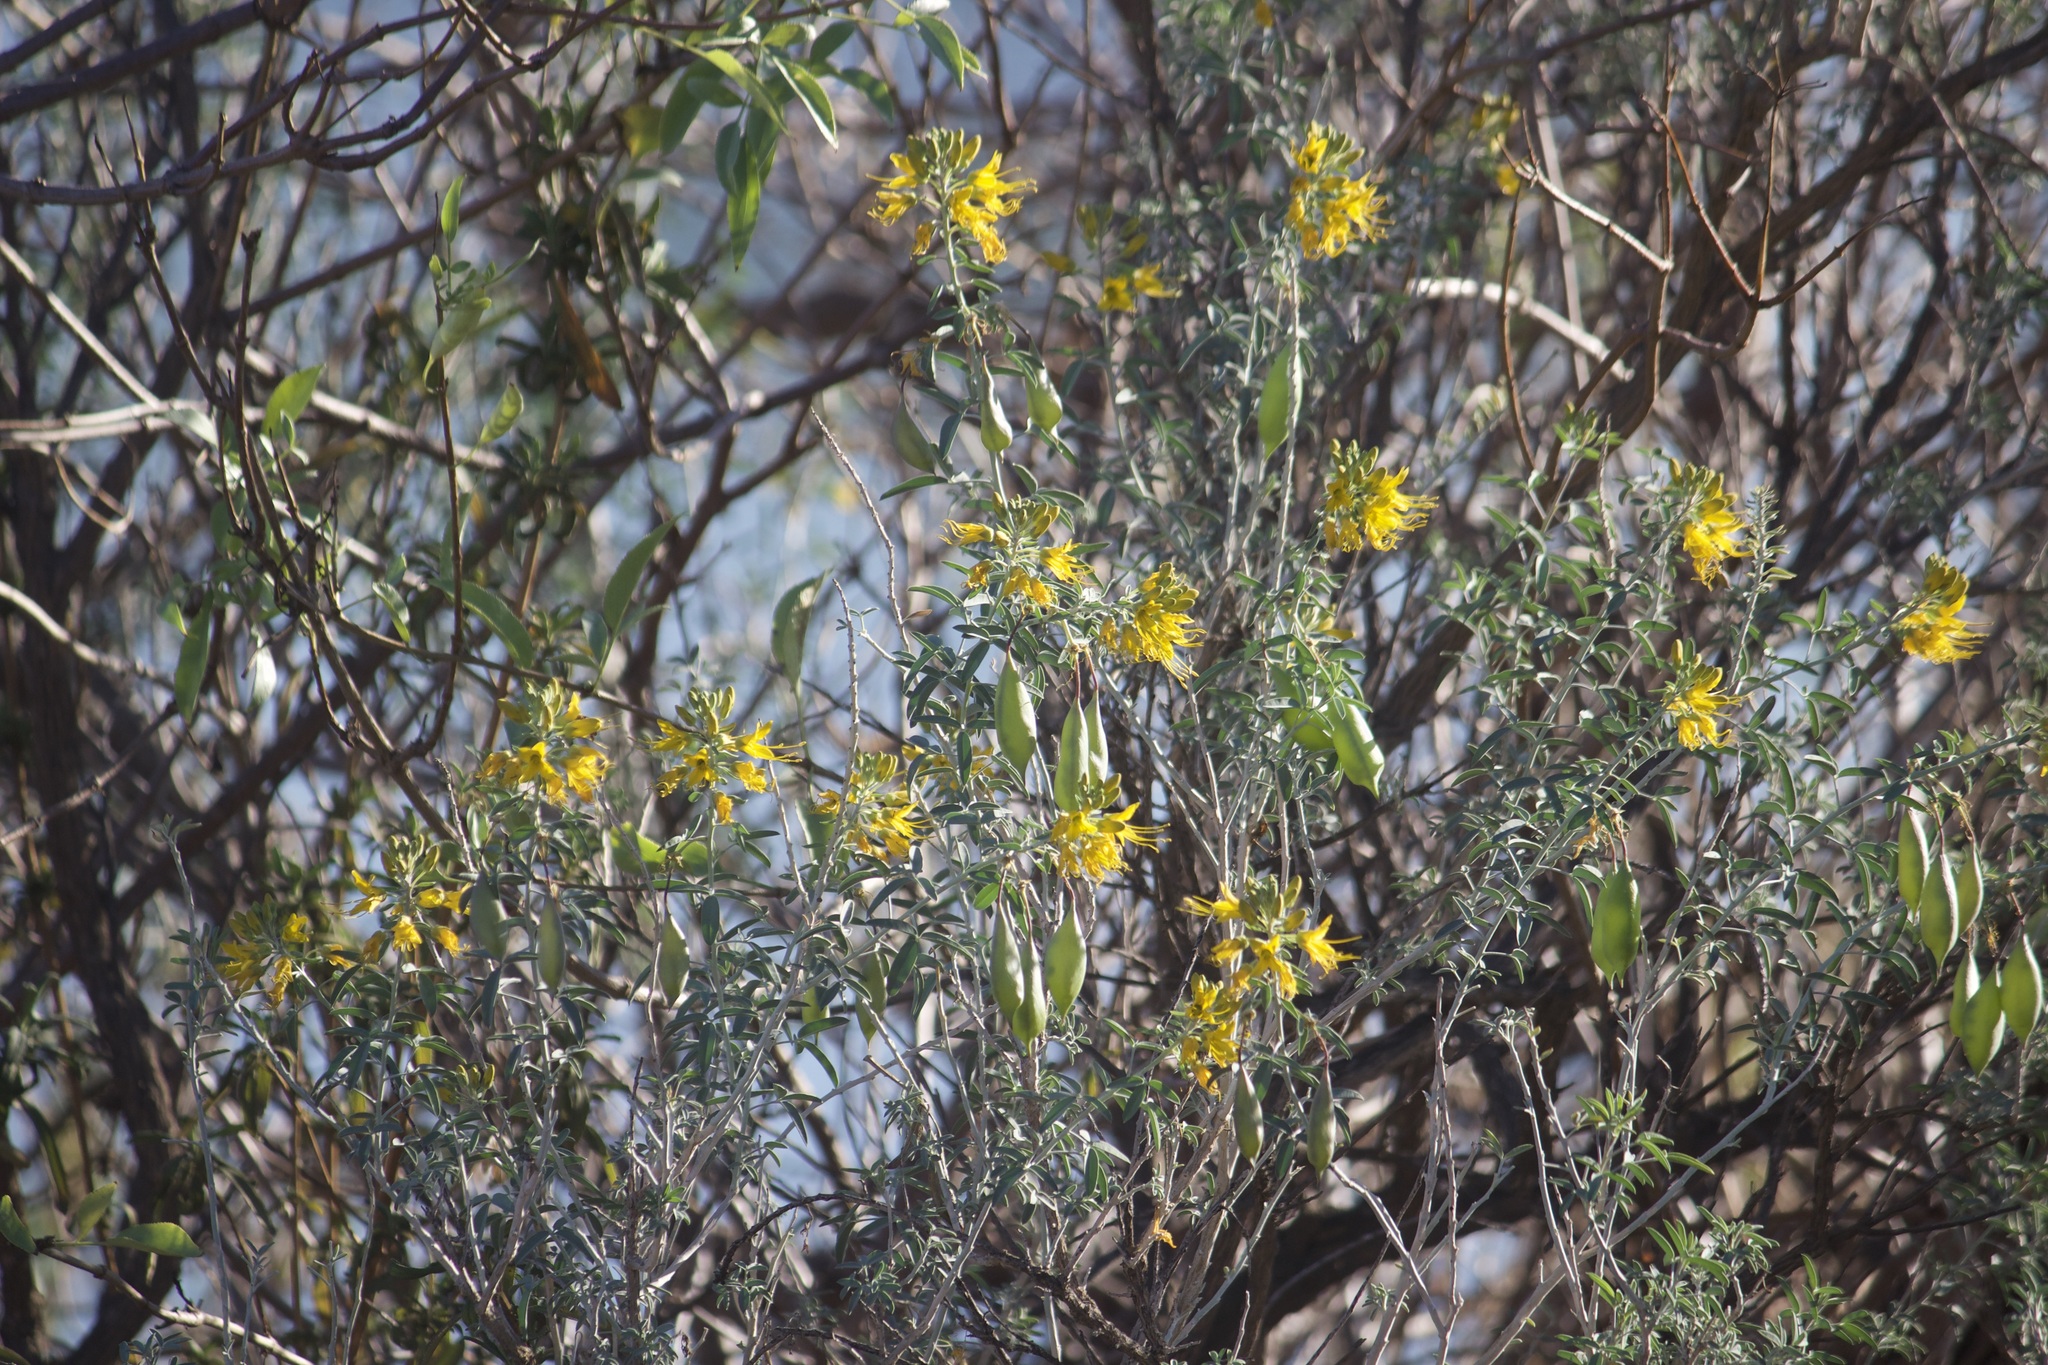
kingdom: Plantae
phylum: Tracheophyta
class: Magnoliopsida
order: Brassicales
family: Cleomaceae
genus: Cleomella
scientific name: Cleomella arborea
